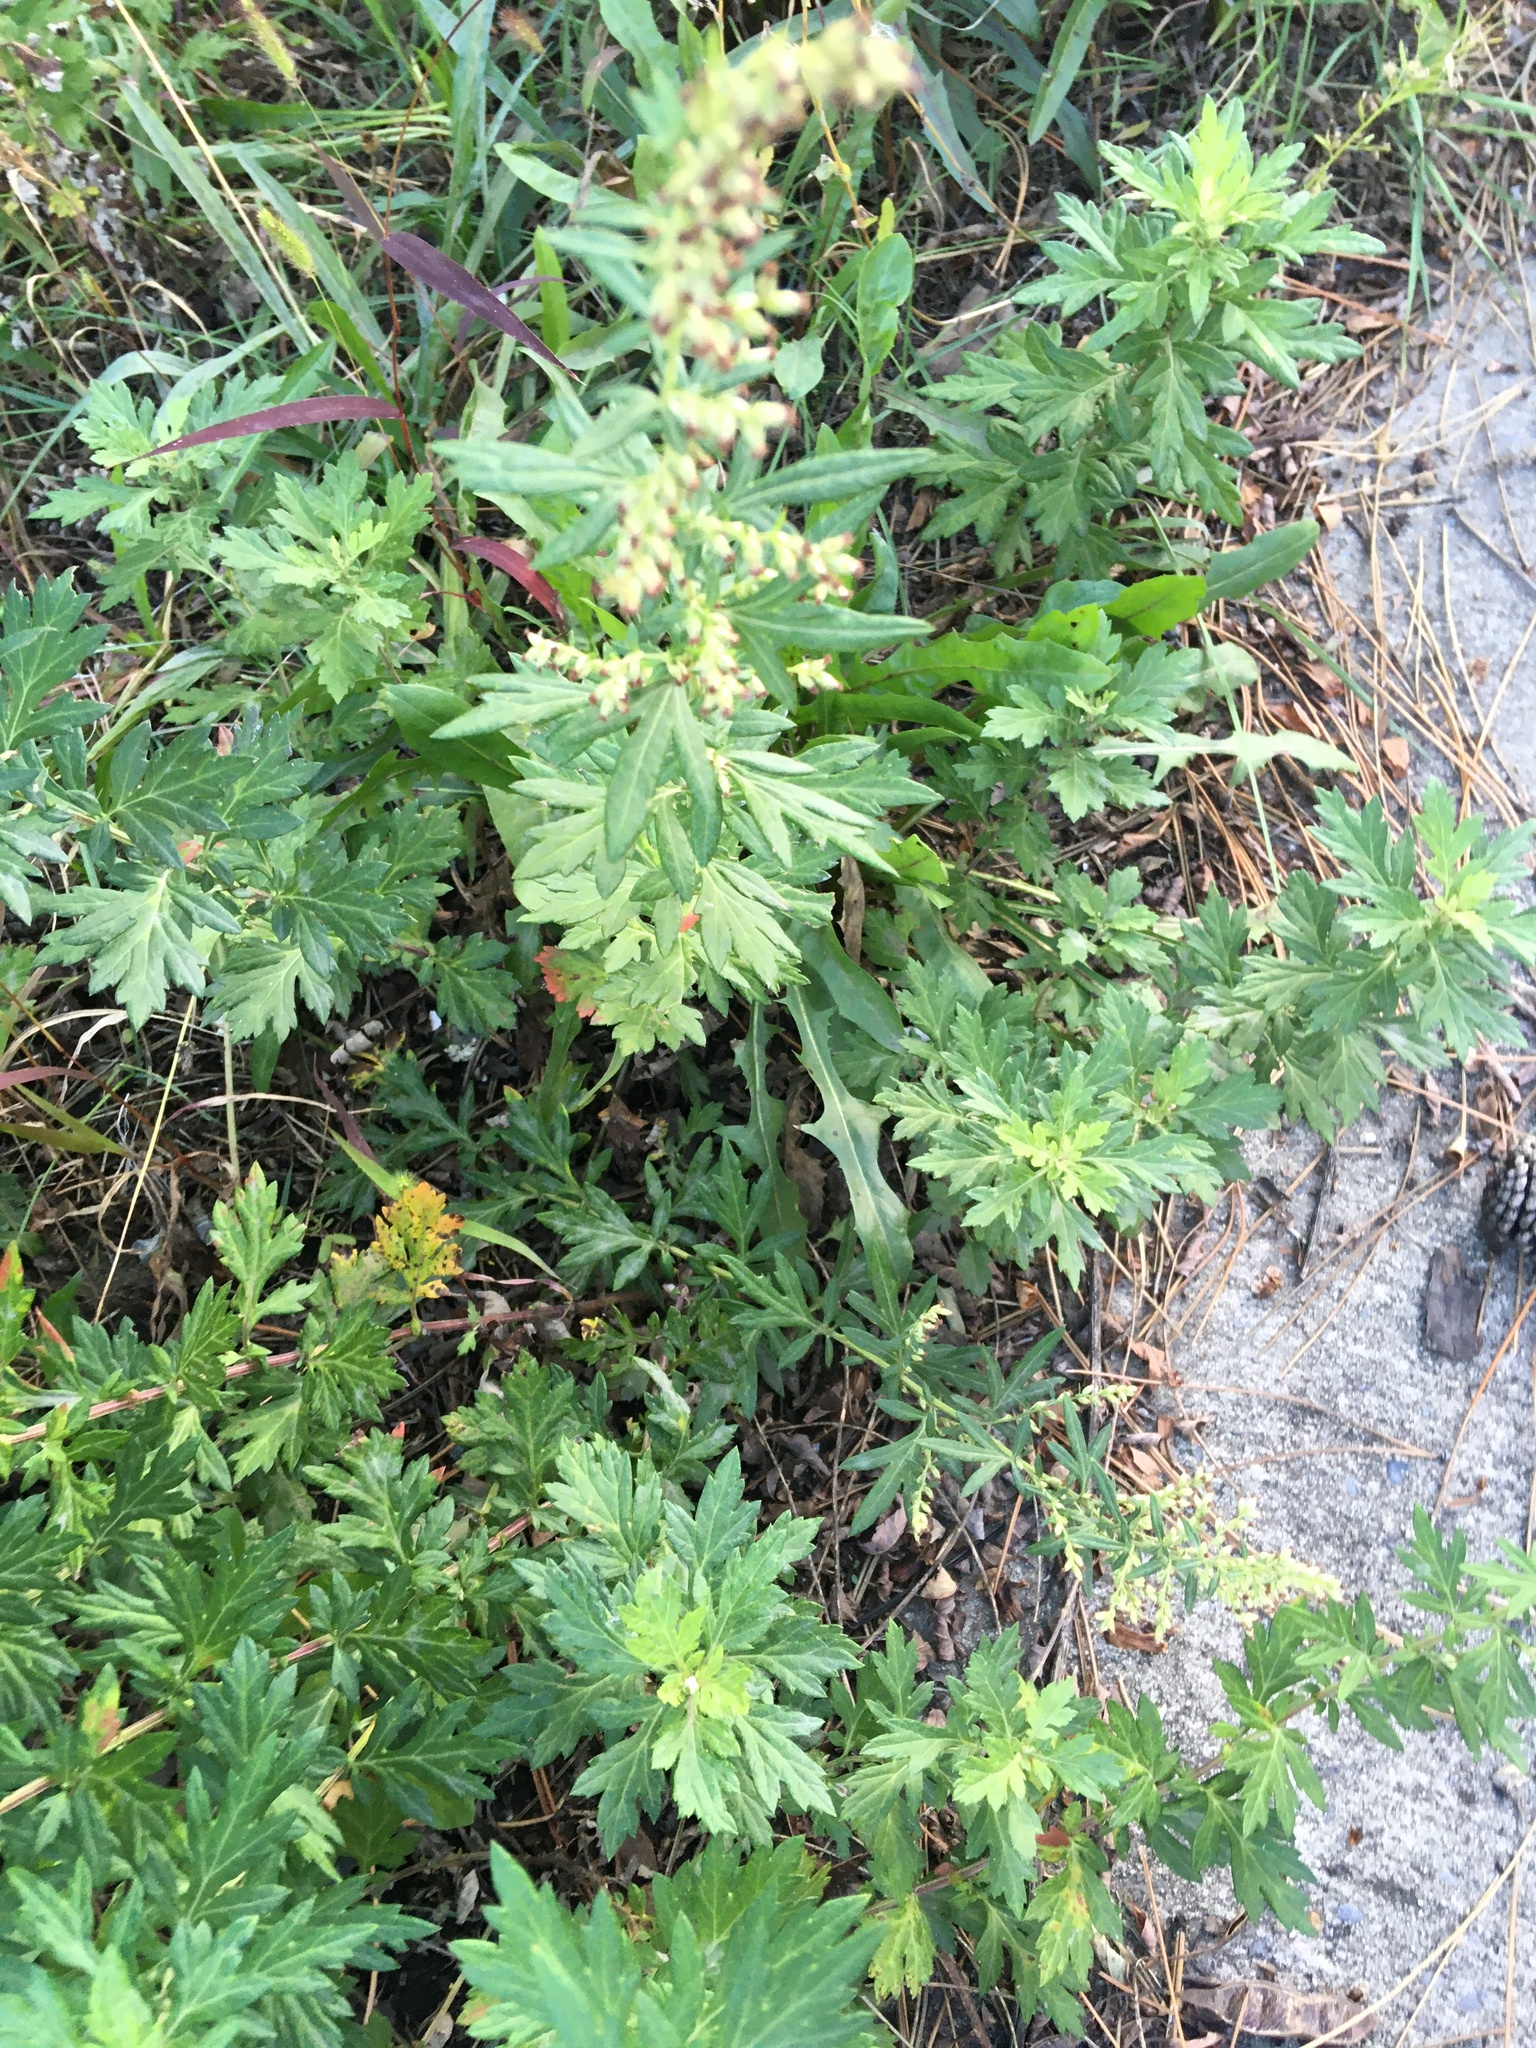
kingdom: Plantae
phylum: Tracheophyta
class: Magnoliopsida
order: Asterales
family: Asteraceae
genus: Artemisia
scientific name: Artemisia vulgaris
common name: Mugwort
